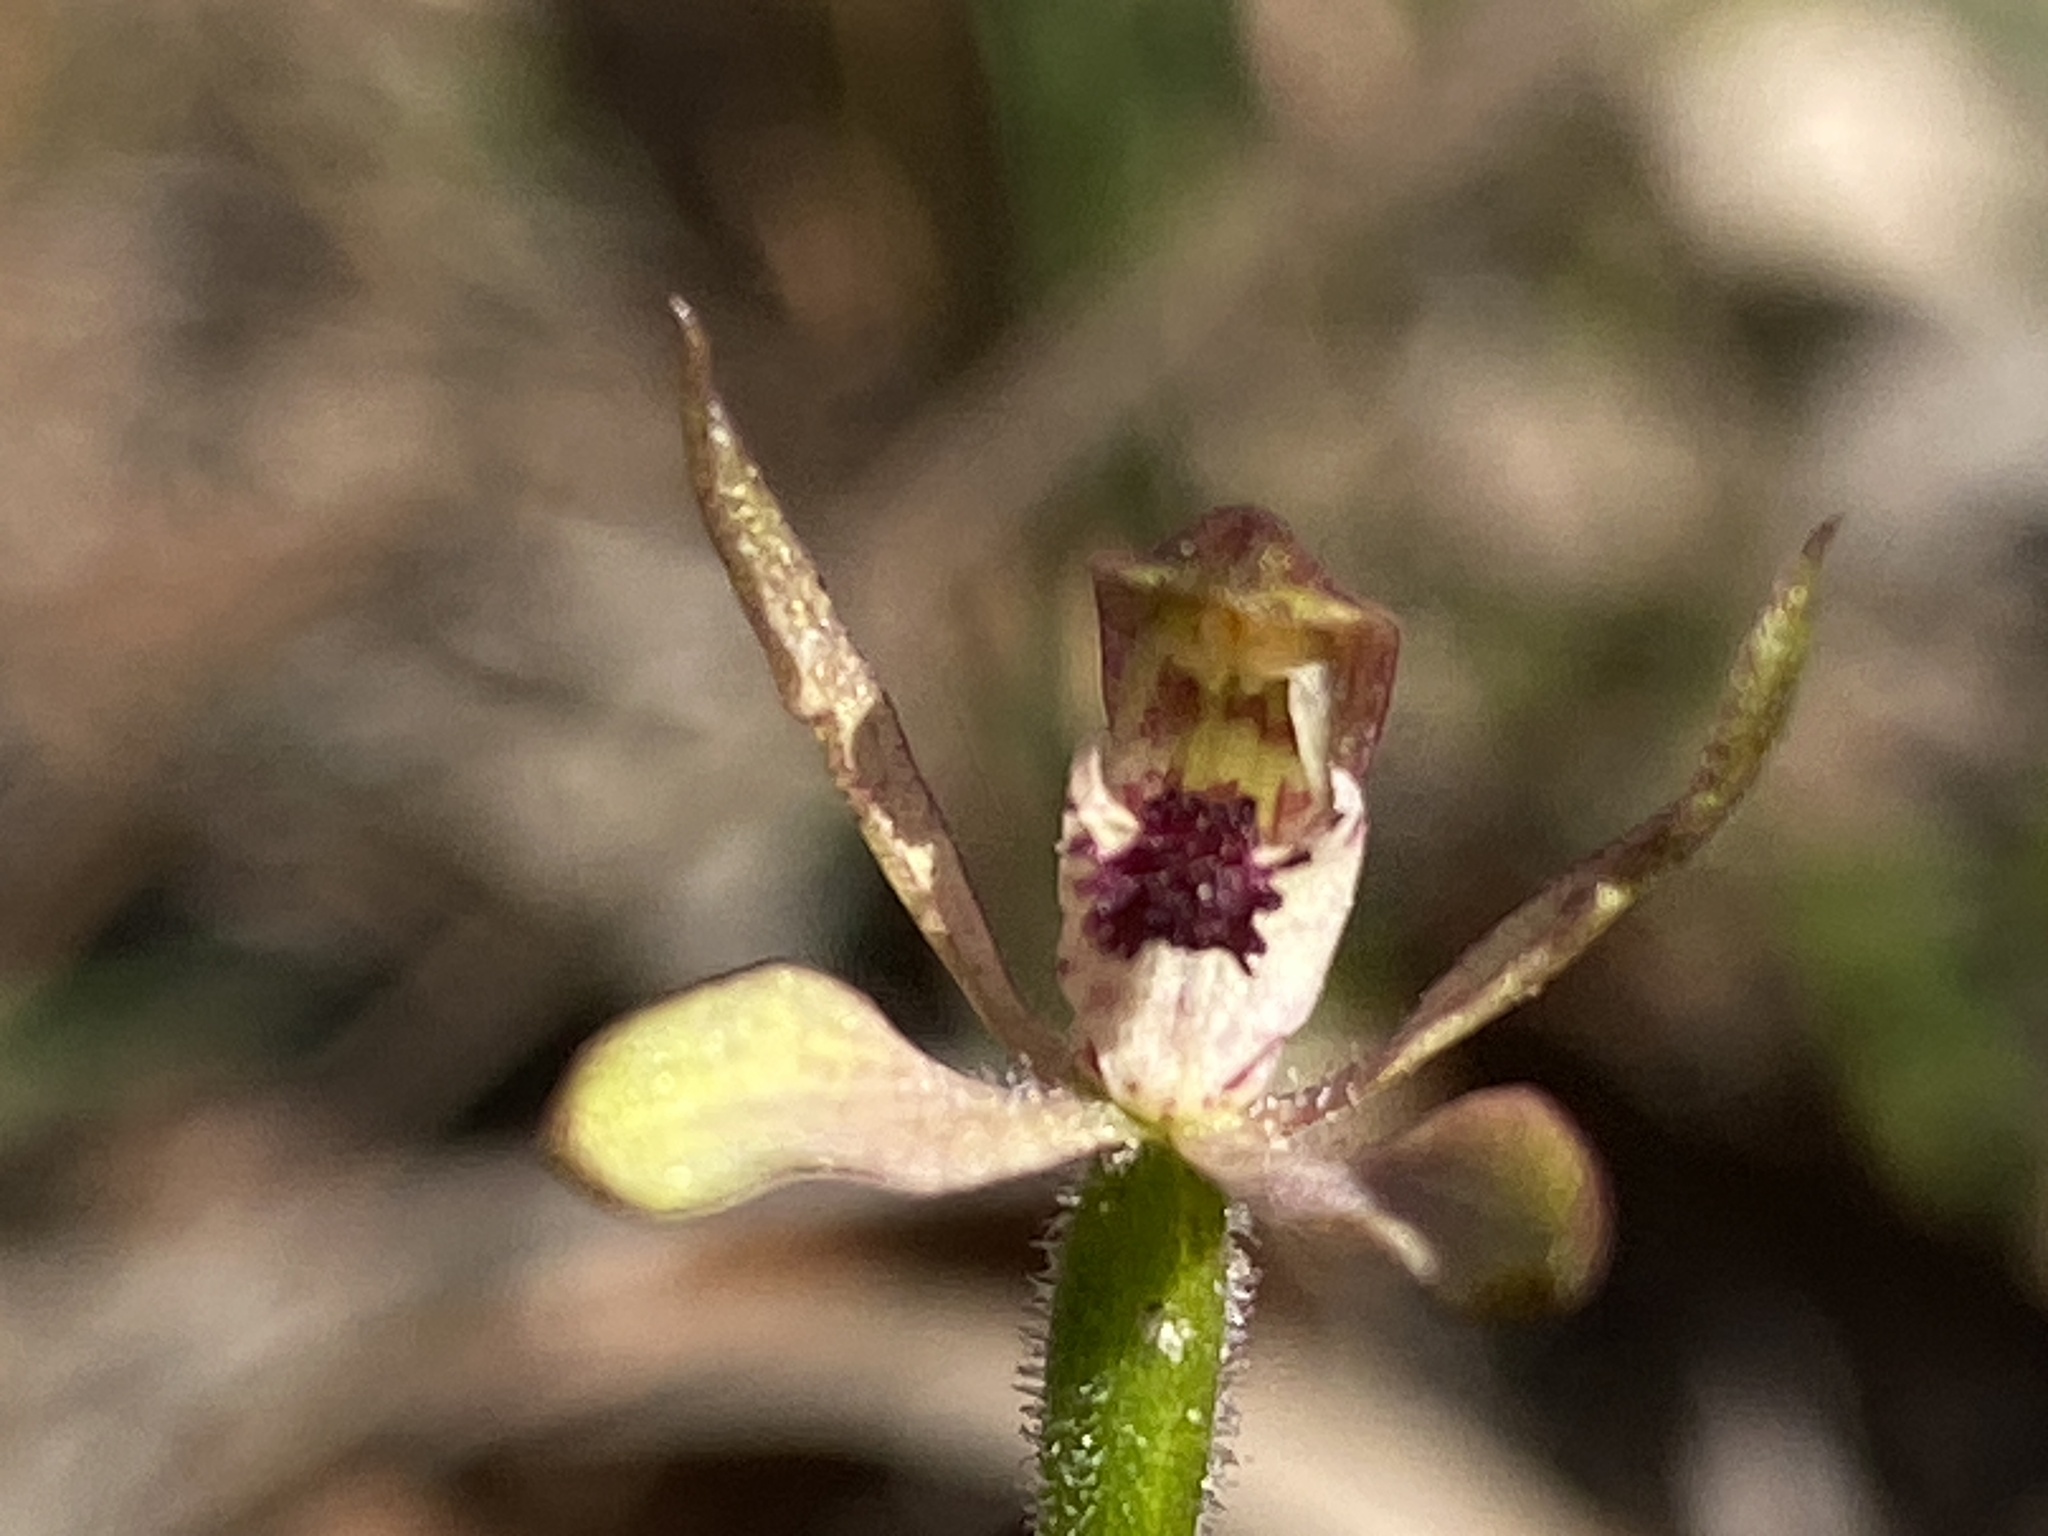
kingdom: Plantae
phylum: Tracheophyta
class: Liliopsida
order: Asparagales
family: Orchidaceae
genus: Caladenia
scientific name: Caladenia transitoria
